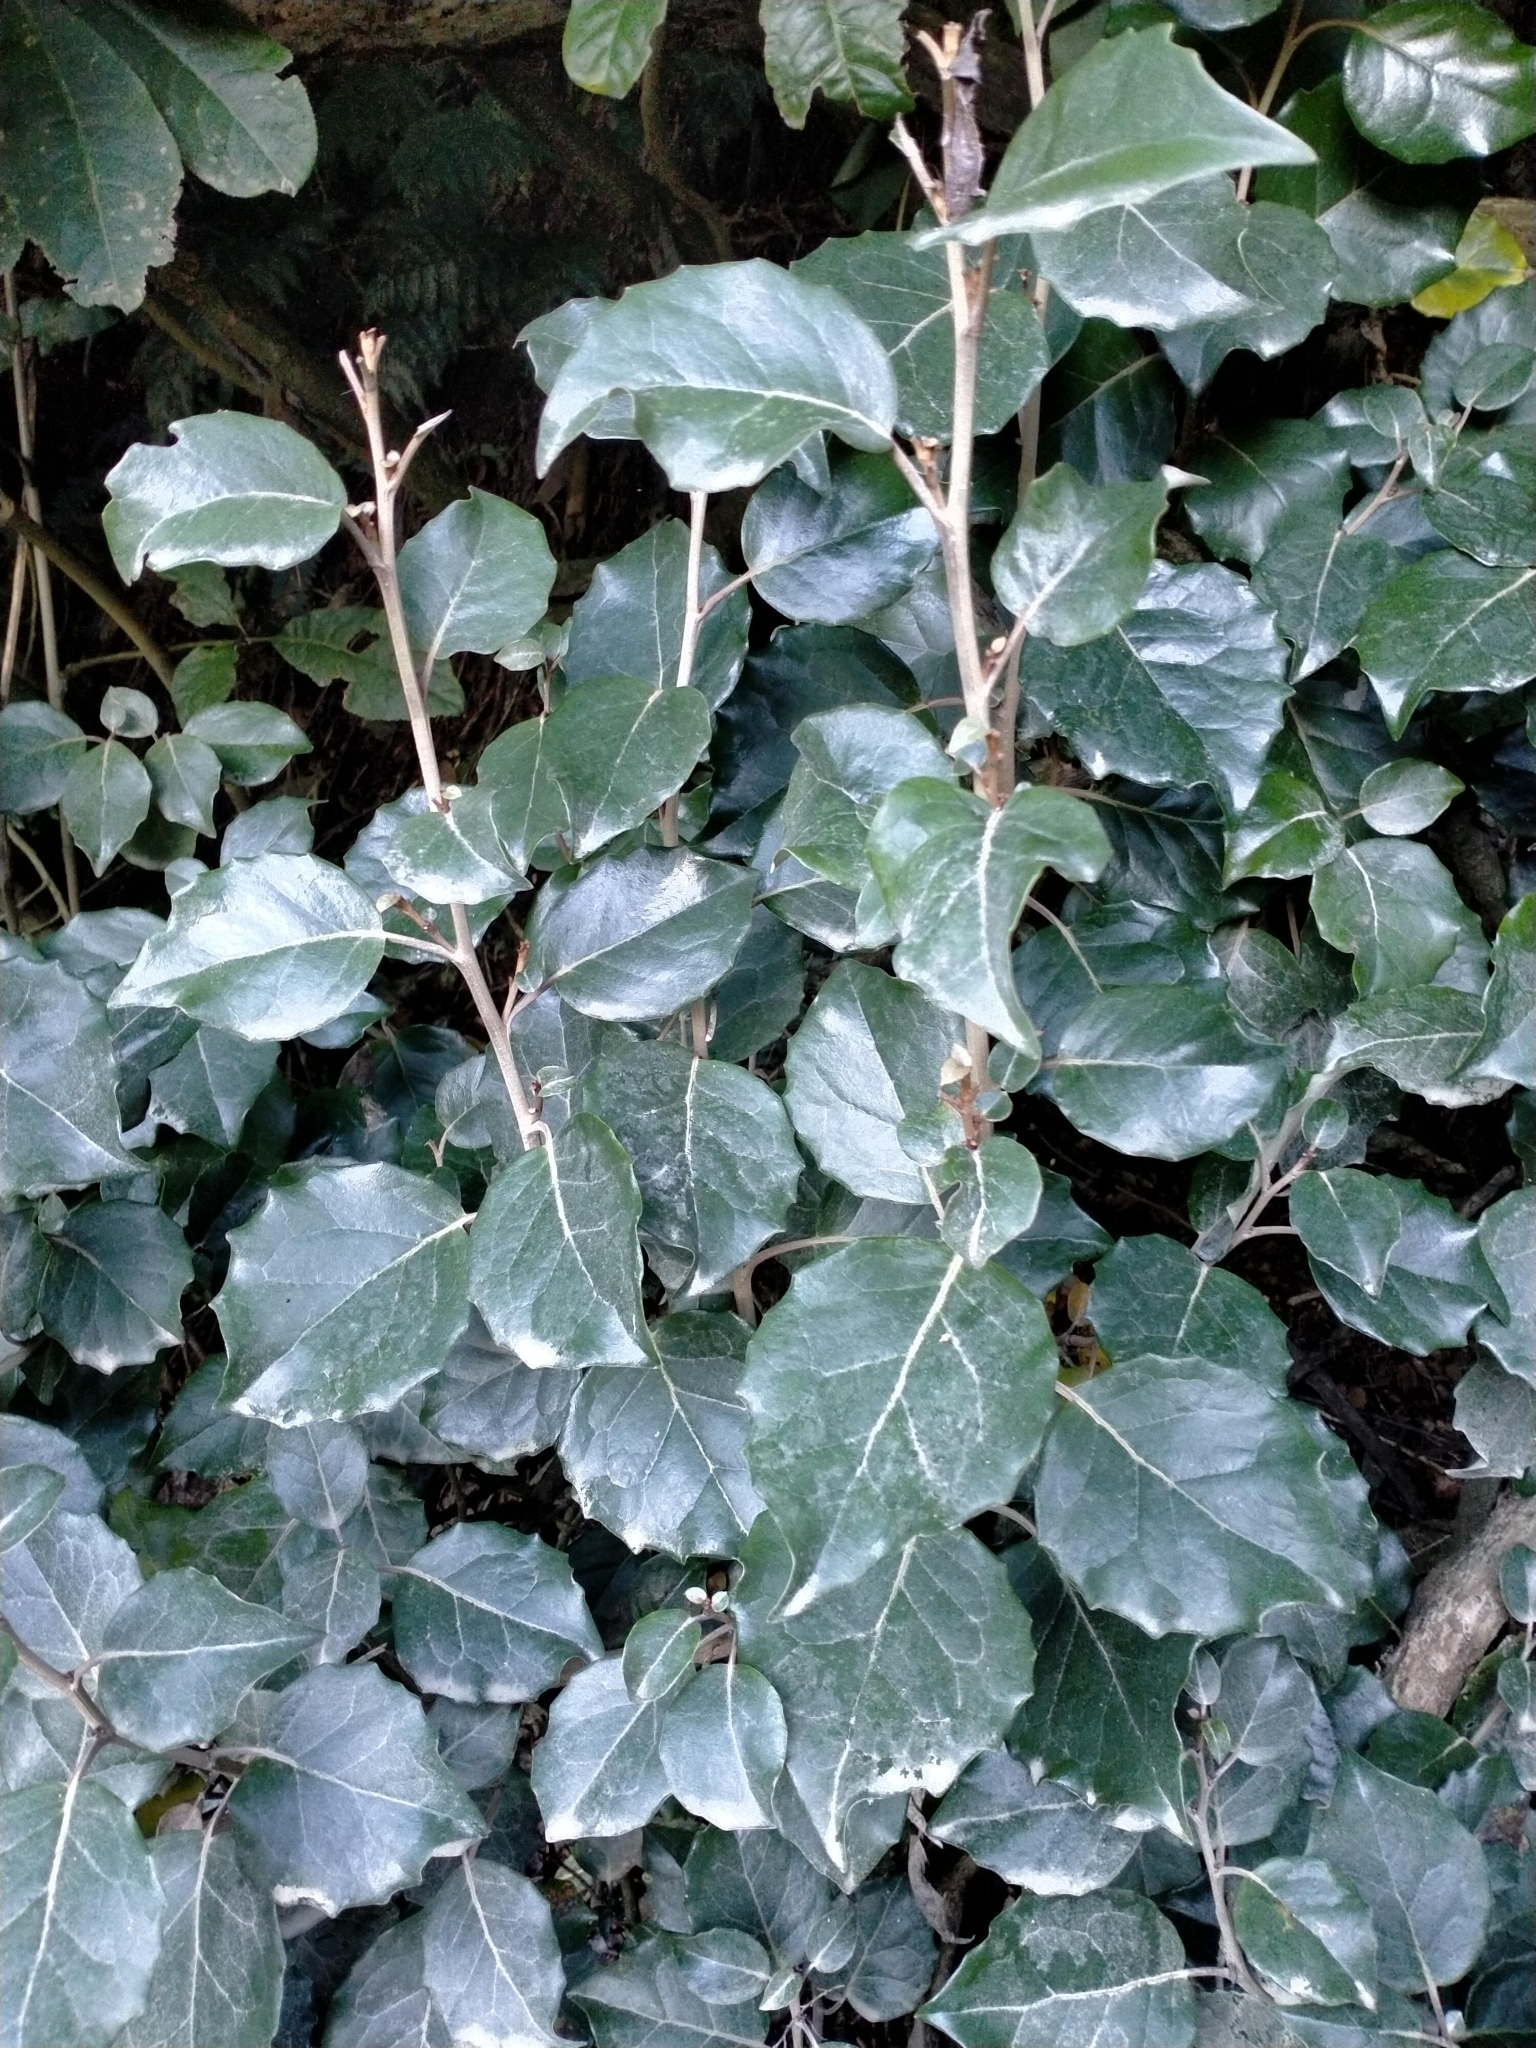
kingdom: Plantae
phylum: Tracheophyta
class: Magnoliopsida
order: Asterales
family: Asteraceae
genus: Olearia
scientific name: Olearia arborescens
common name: Glossy tree daisy
